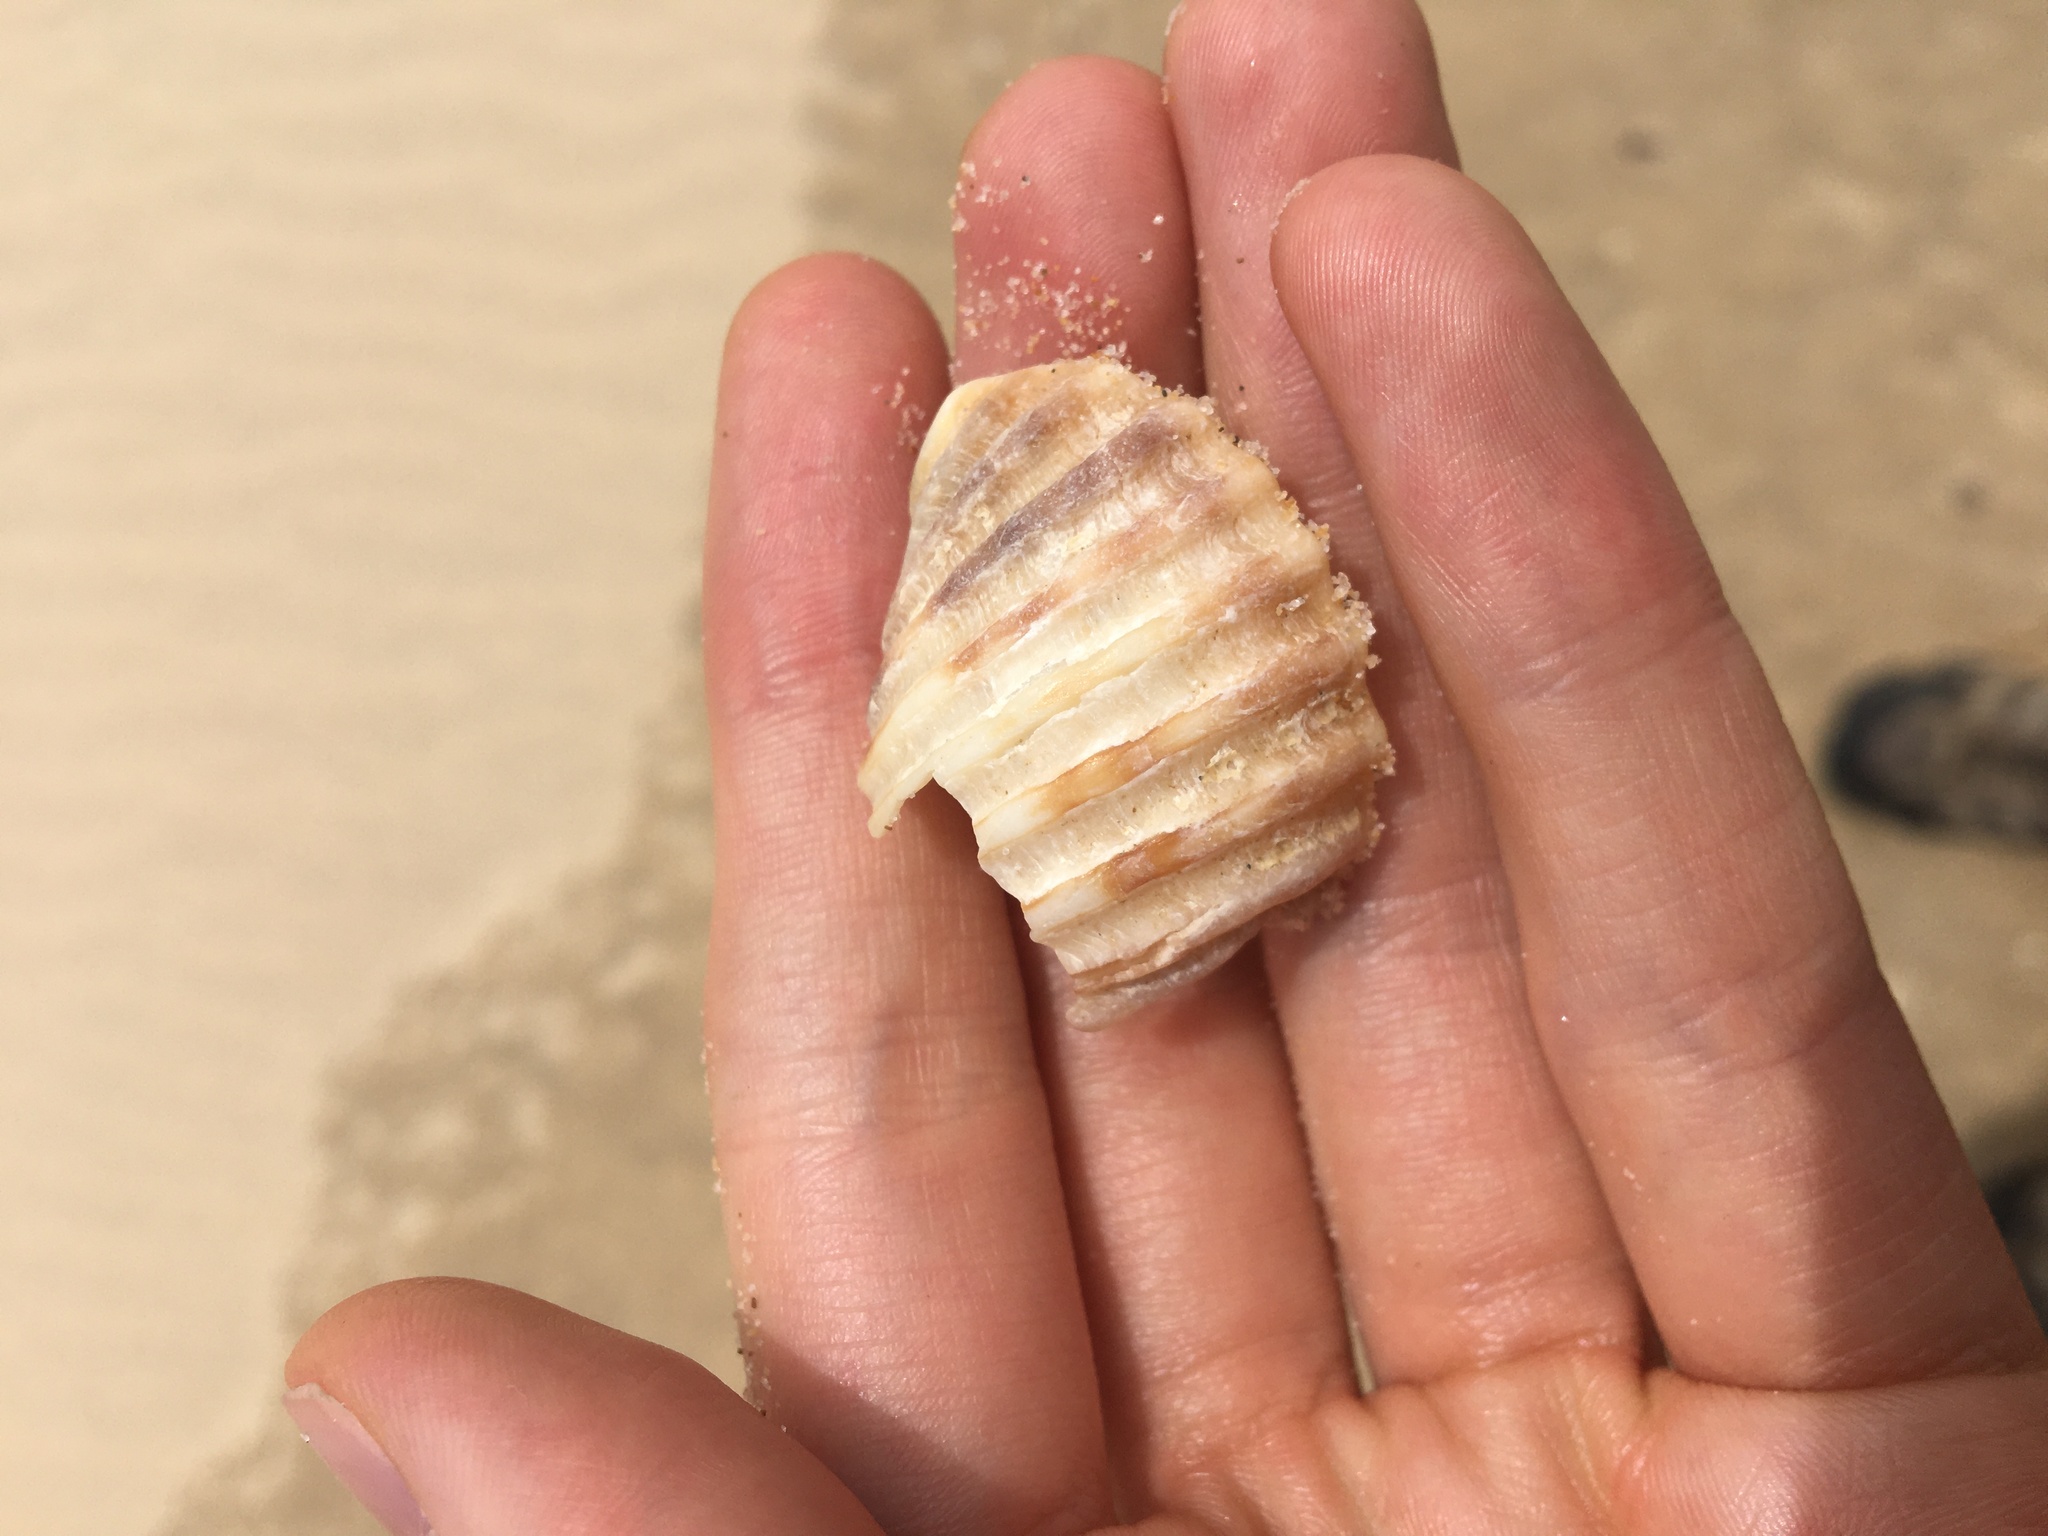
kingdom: Animalia
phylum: Mollusca
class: Gastropoda
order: Neogastropoda
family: Muricidae
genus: Dicathais
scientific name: Dicathais orbita
